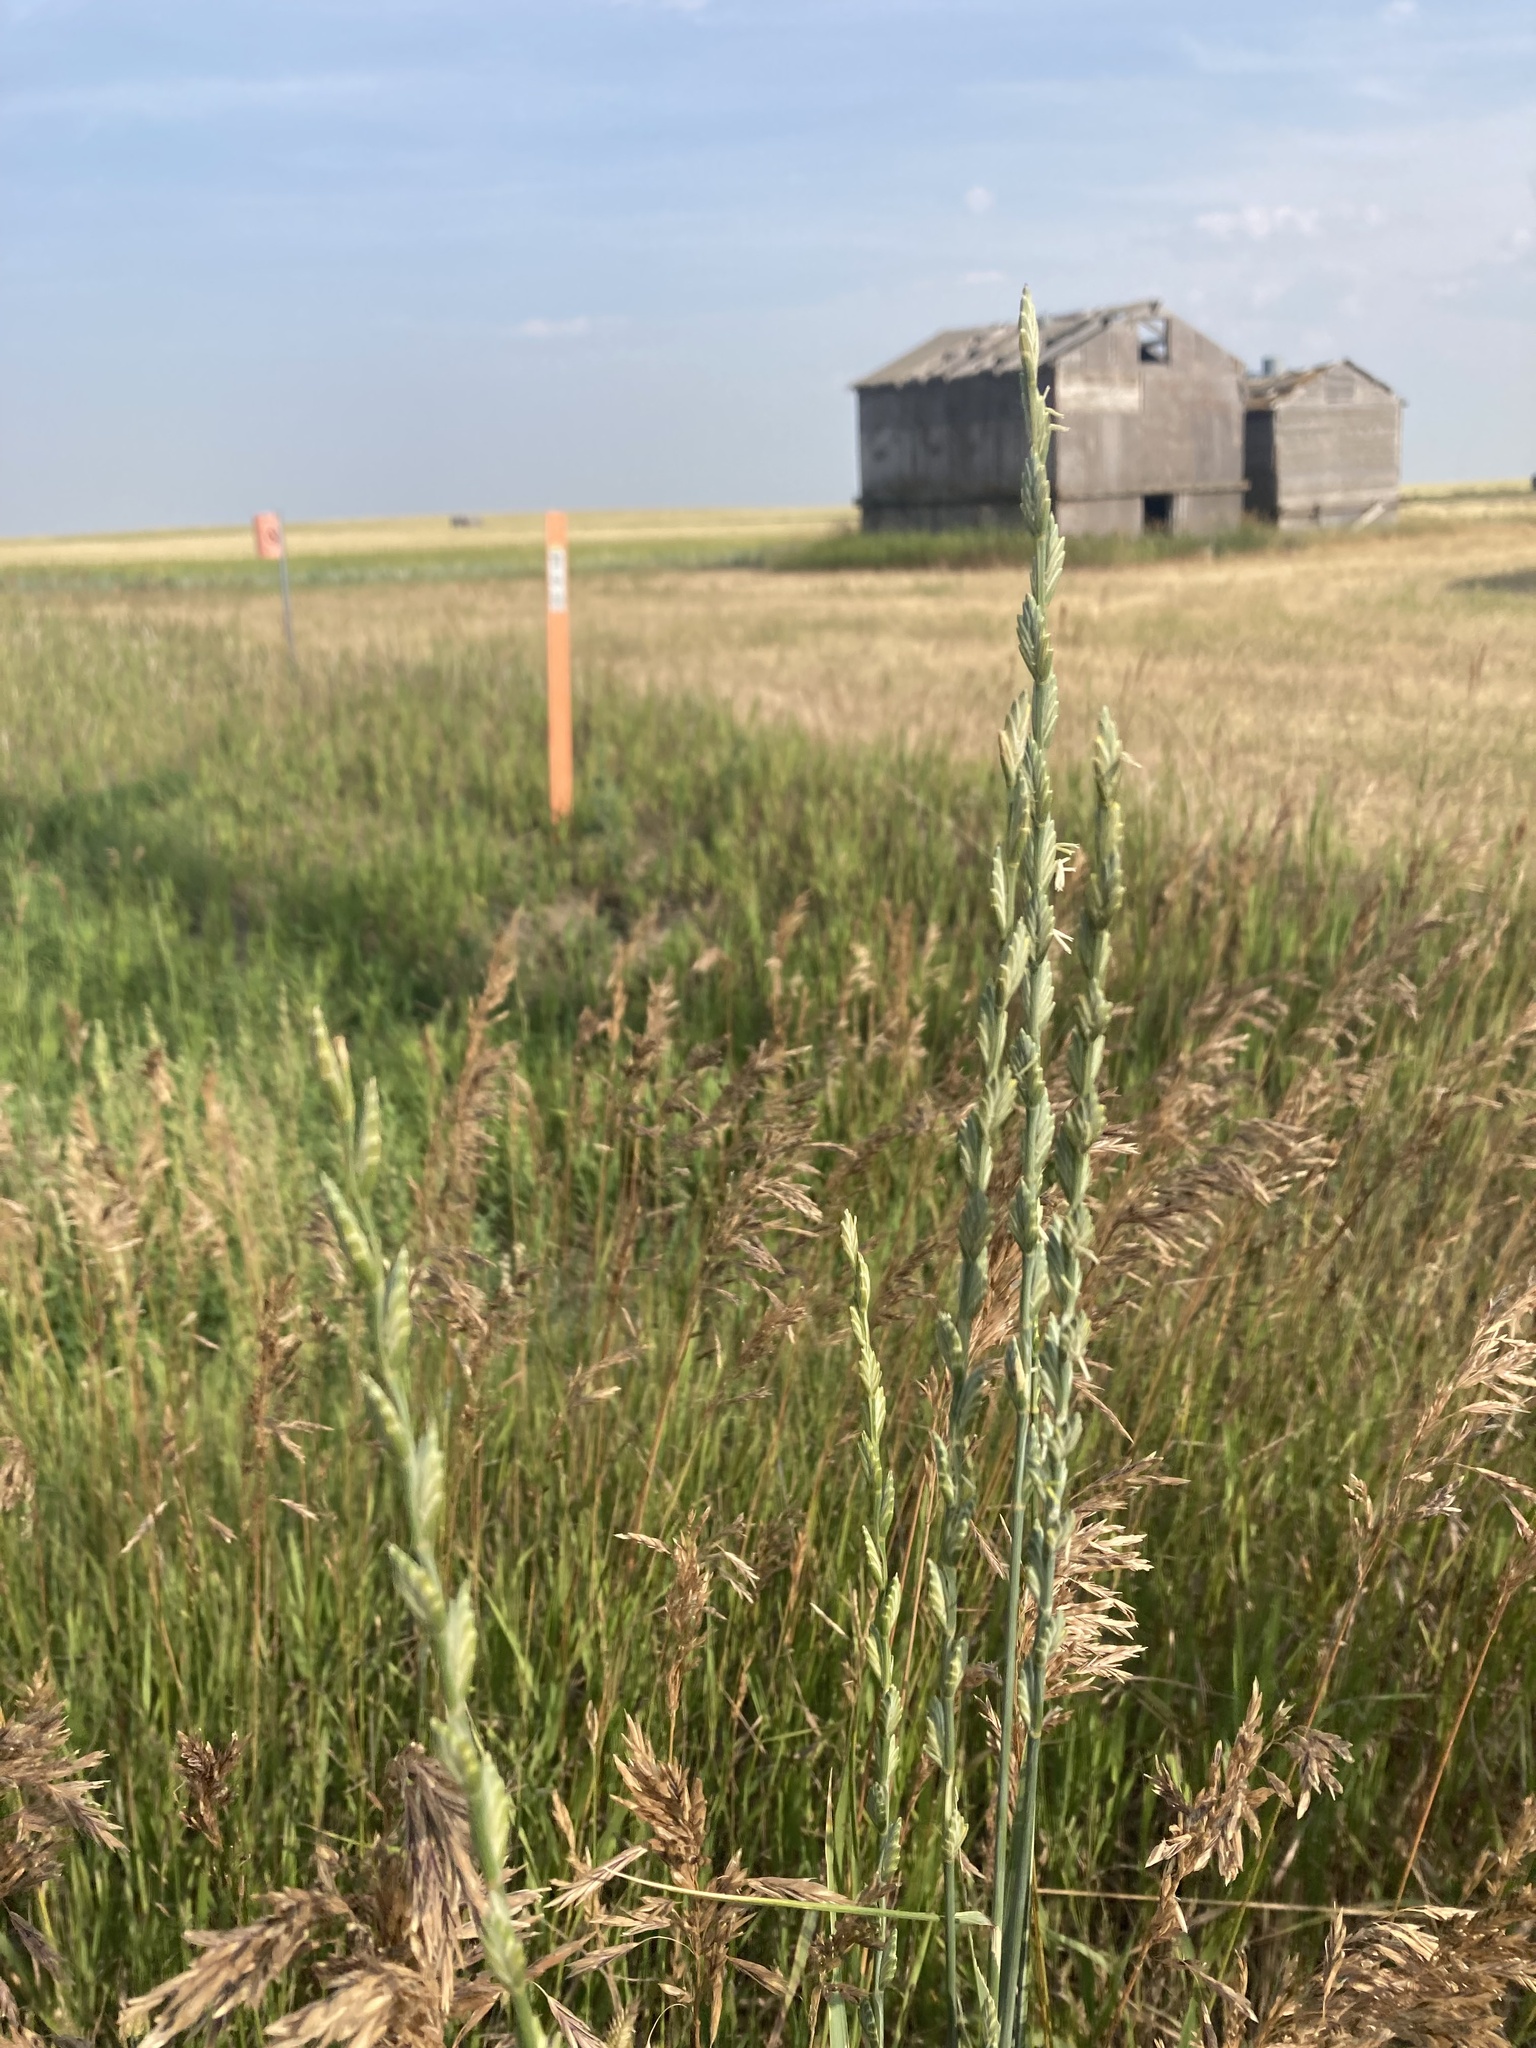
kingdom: Plantae
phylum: Tracheophyta
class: Liliopsida
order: Poales
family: Poaceae
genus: Thinopyrum
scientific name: Thinopyrum intermedium
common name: Intermediate wheatgrass
